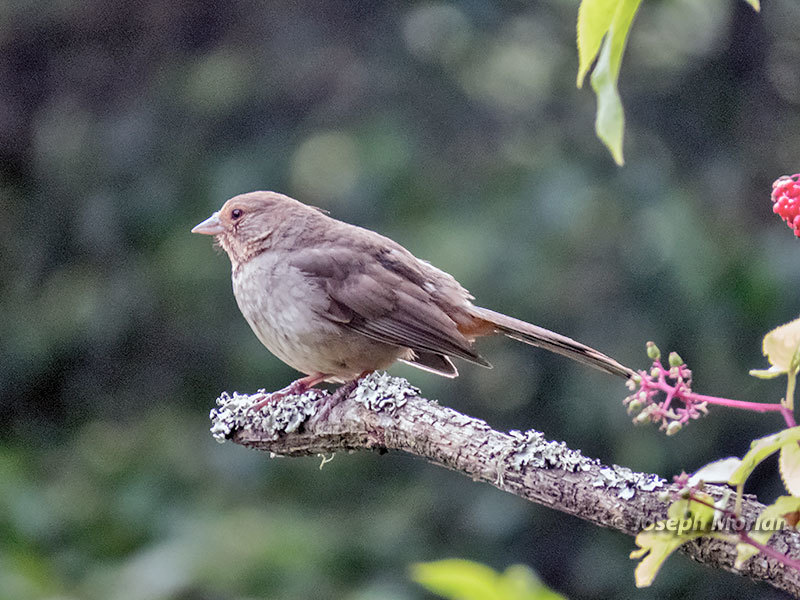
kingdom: Animalia
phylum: Chordata
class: Aves
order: Passeriformes
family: Passerellidae
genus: Melozone
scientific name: Melozone crissalis
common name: California towhee
